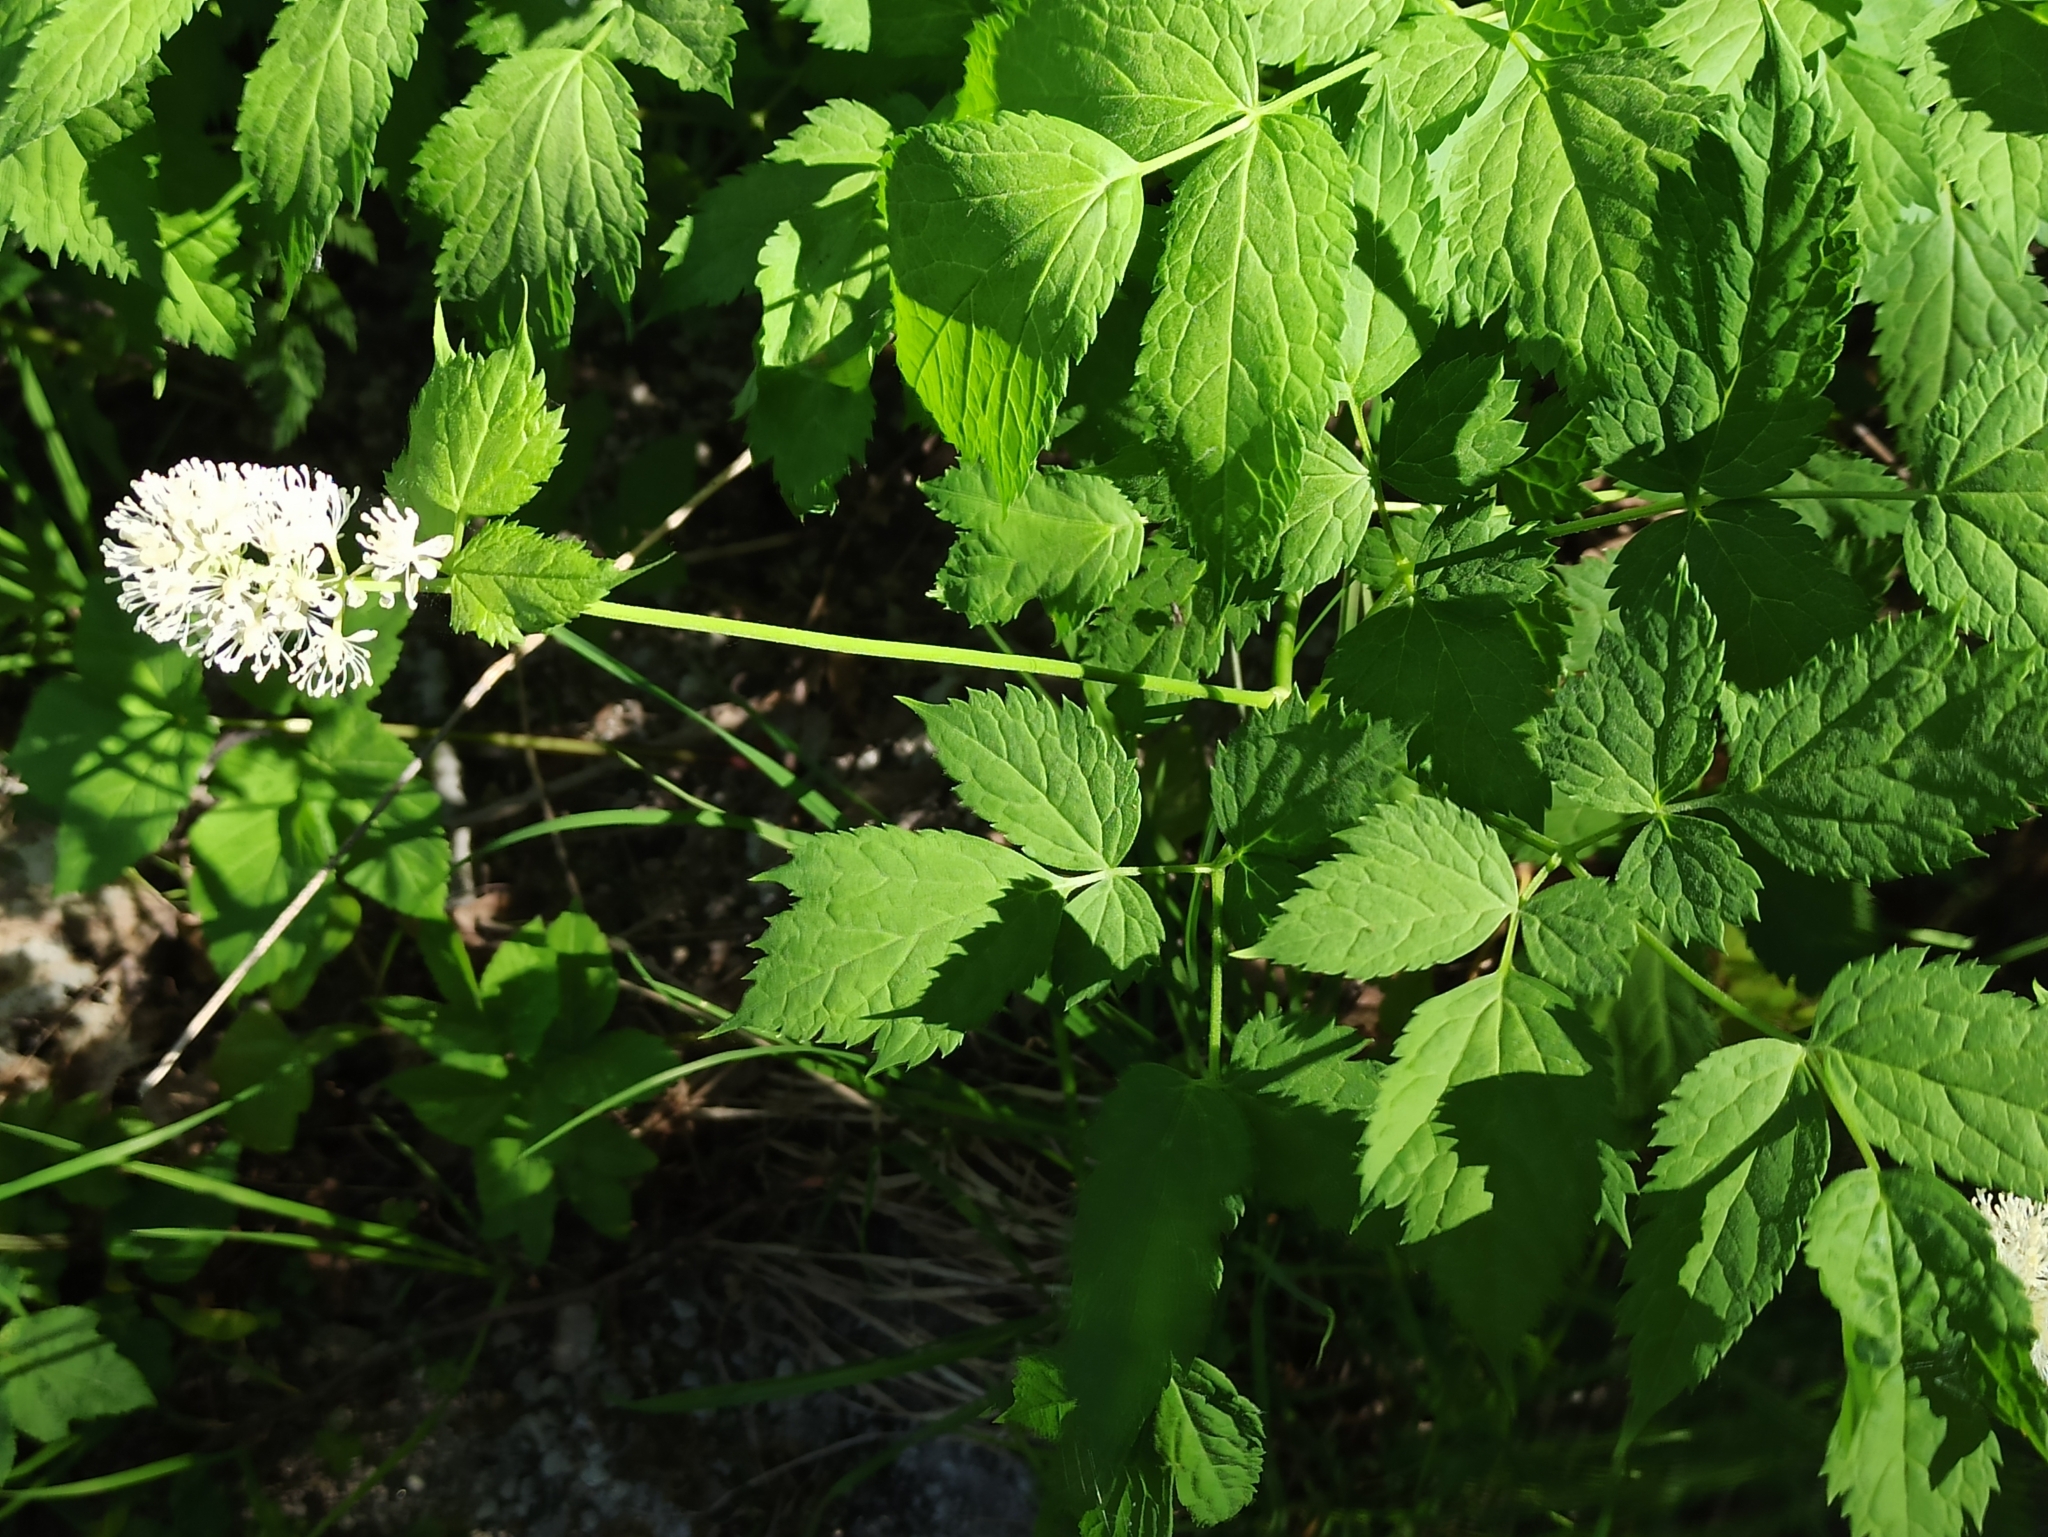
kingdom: Plantae
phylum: Tracheophyta
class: Magnoliopsida
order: Ranunculales
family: Ranunculaceae
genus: Actaea
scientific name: Actaea spicata
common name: Baneberry
